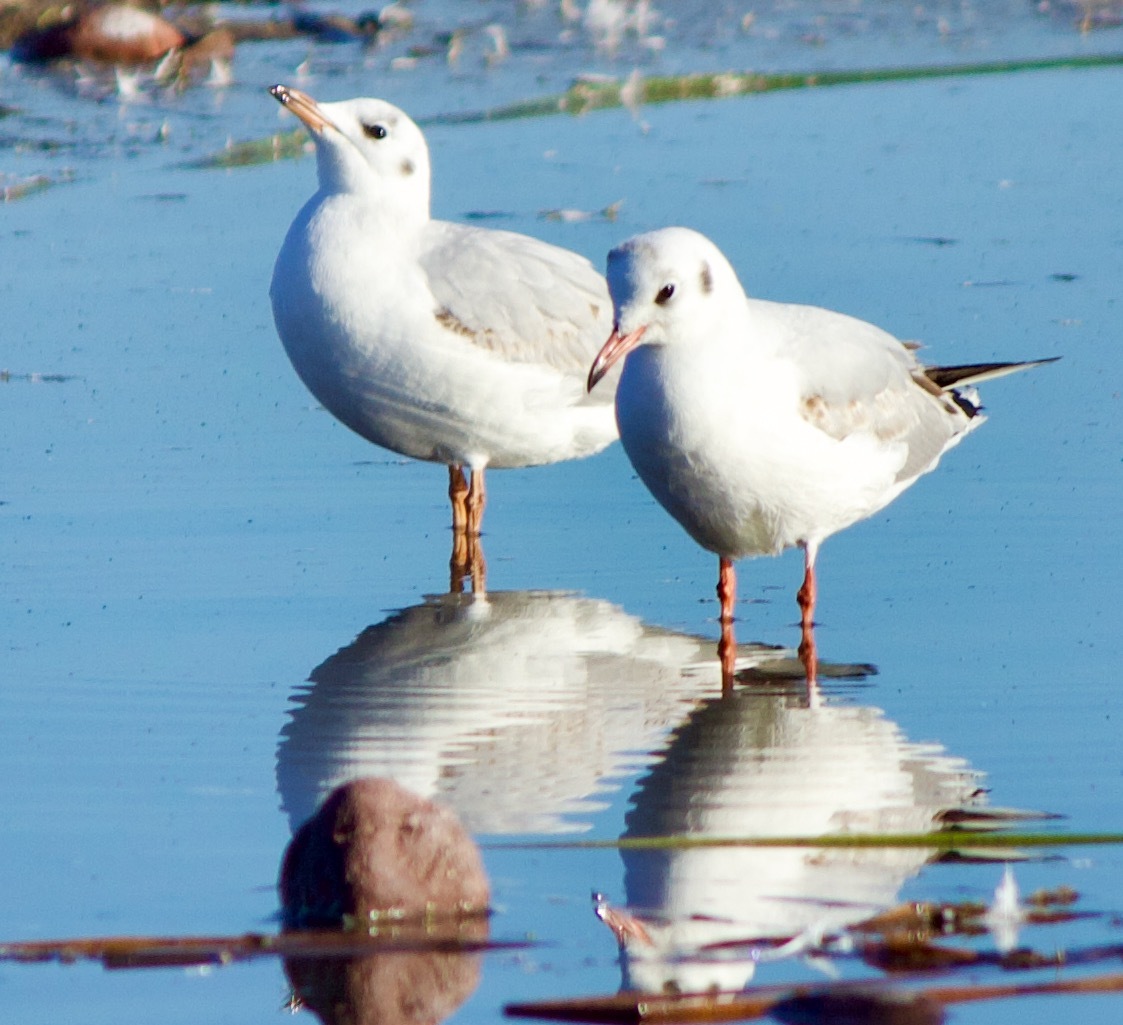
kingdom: Animalia
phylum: Chordata
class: Aves
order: Charadriiformes
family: Laridae
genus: Chroicocephalus
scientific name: Chroicocephalus maculipennis
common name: Brown-hooded gull
